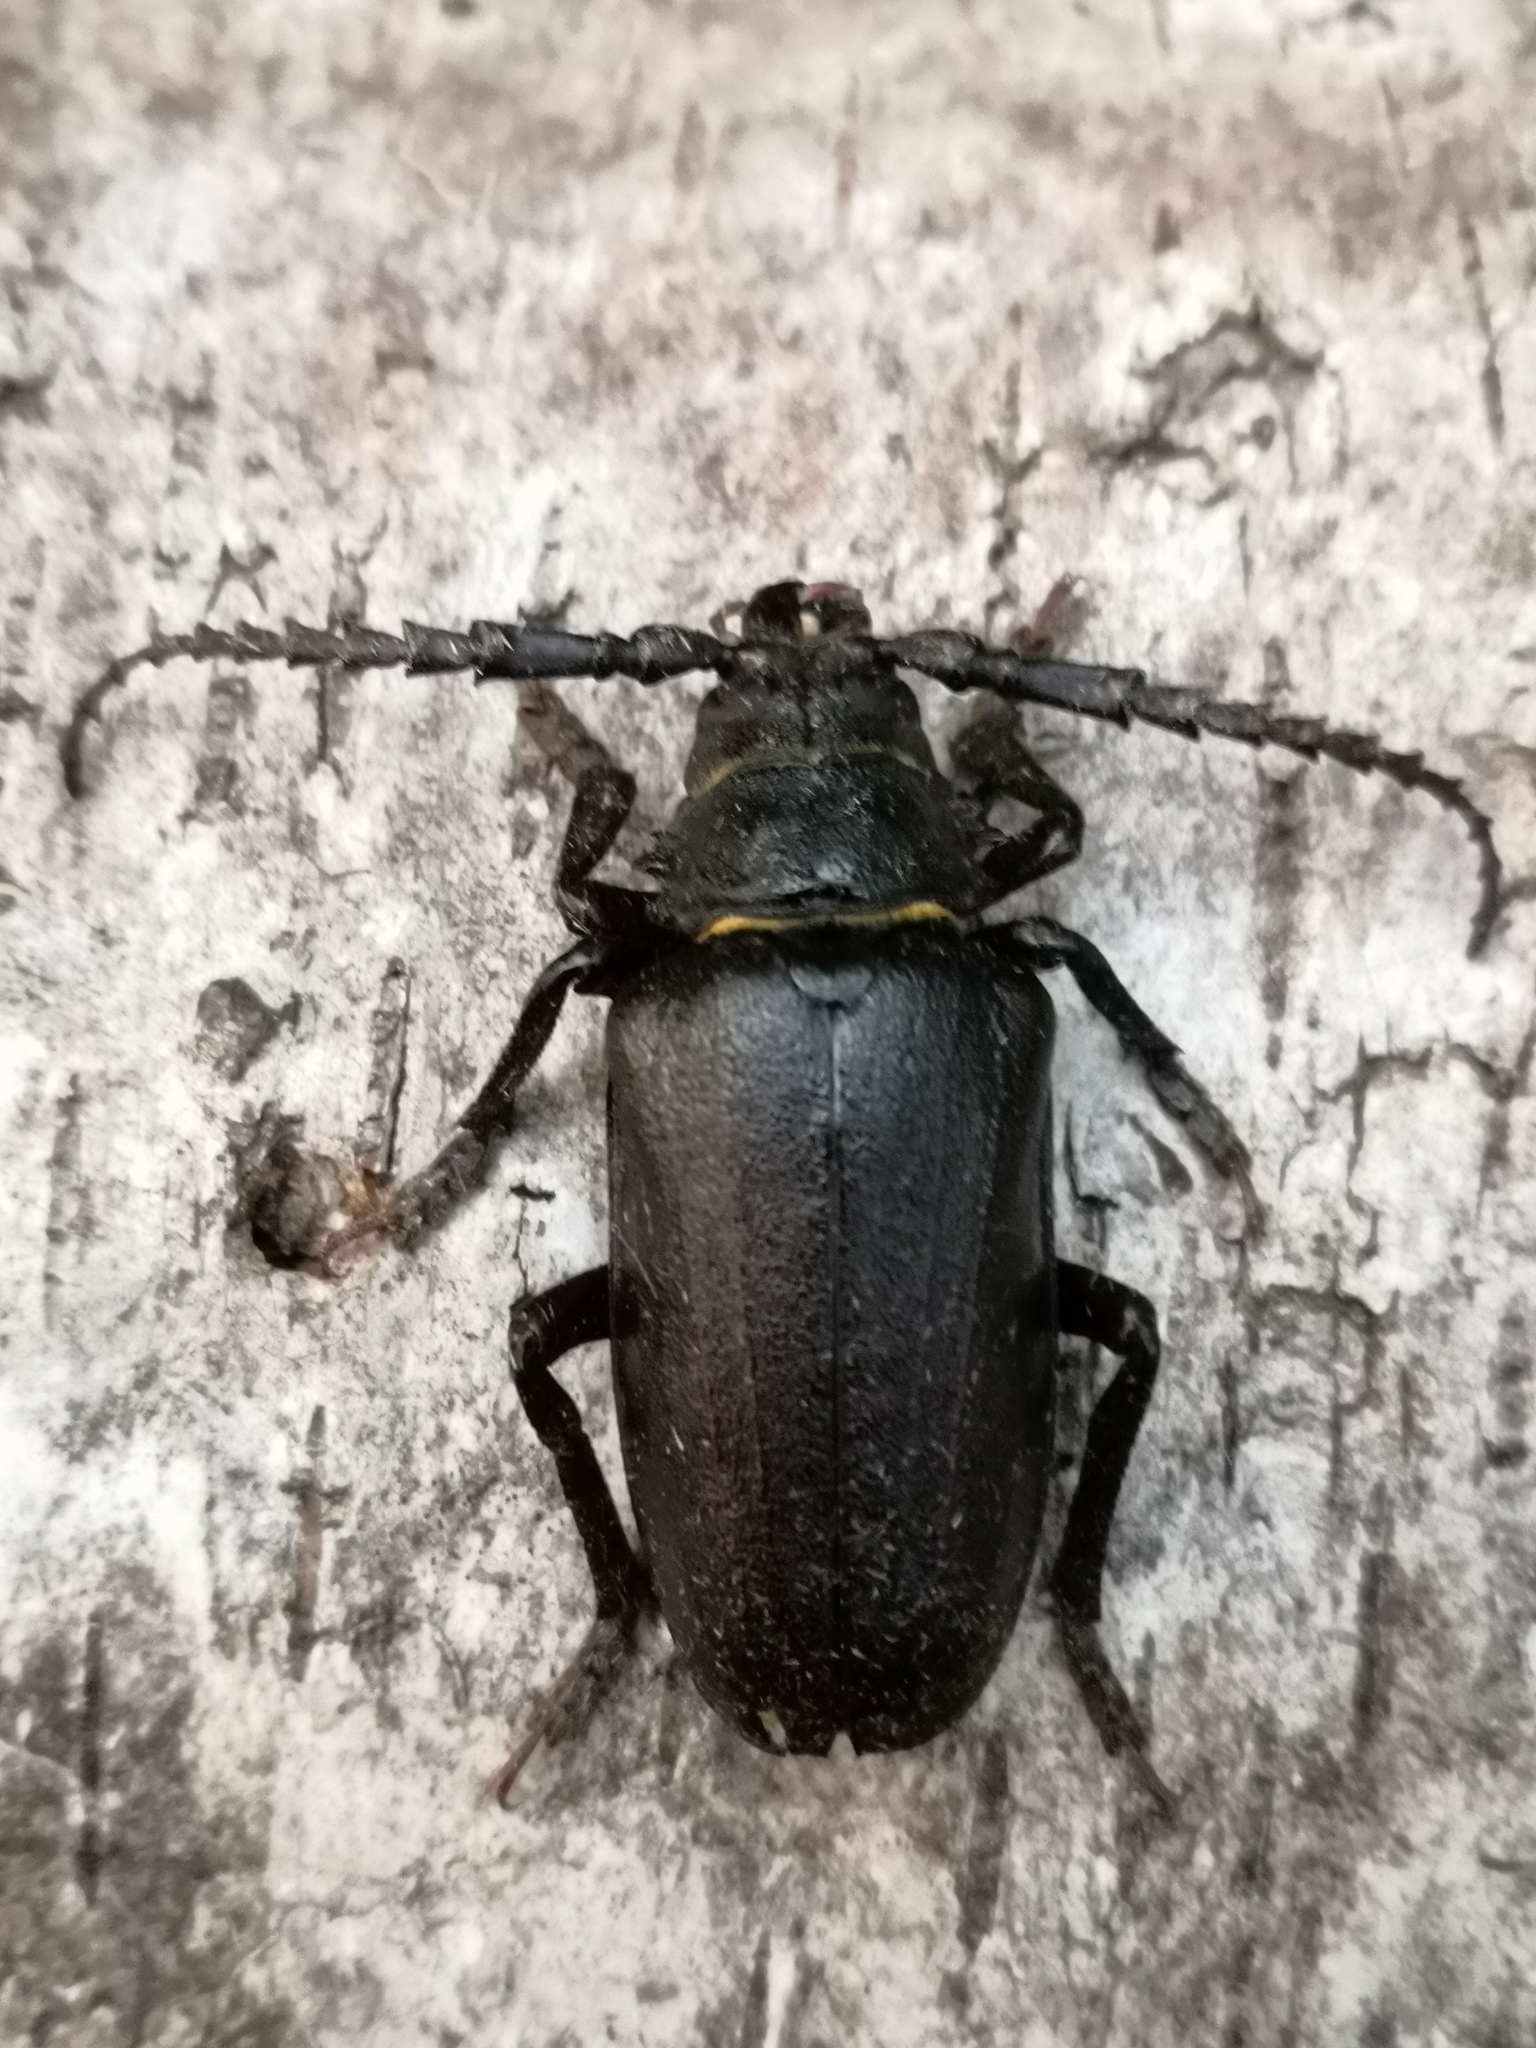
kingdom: Animalia
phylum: Arthropoda
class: Insecta
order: Coleoptera
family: Cerambycidae
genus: Prionus
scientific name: Prionus coriarius
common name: Tanner beetle
